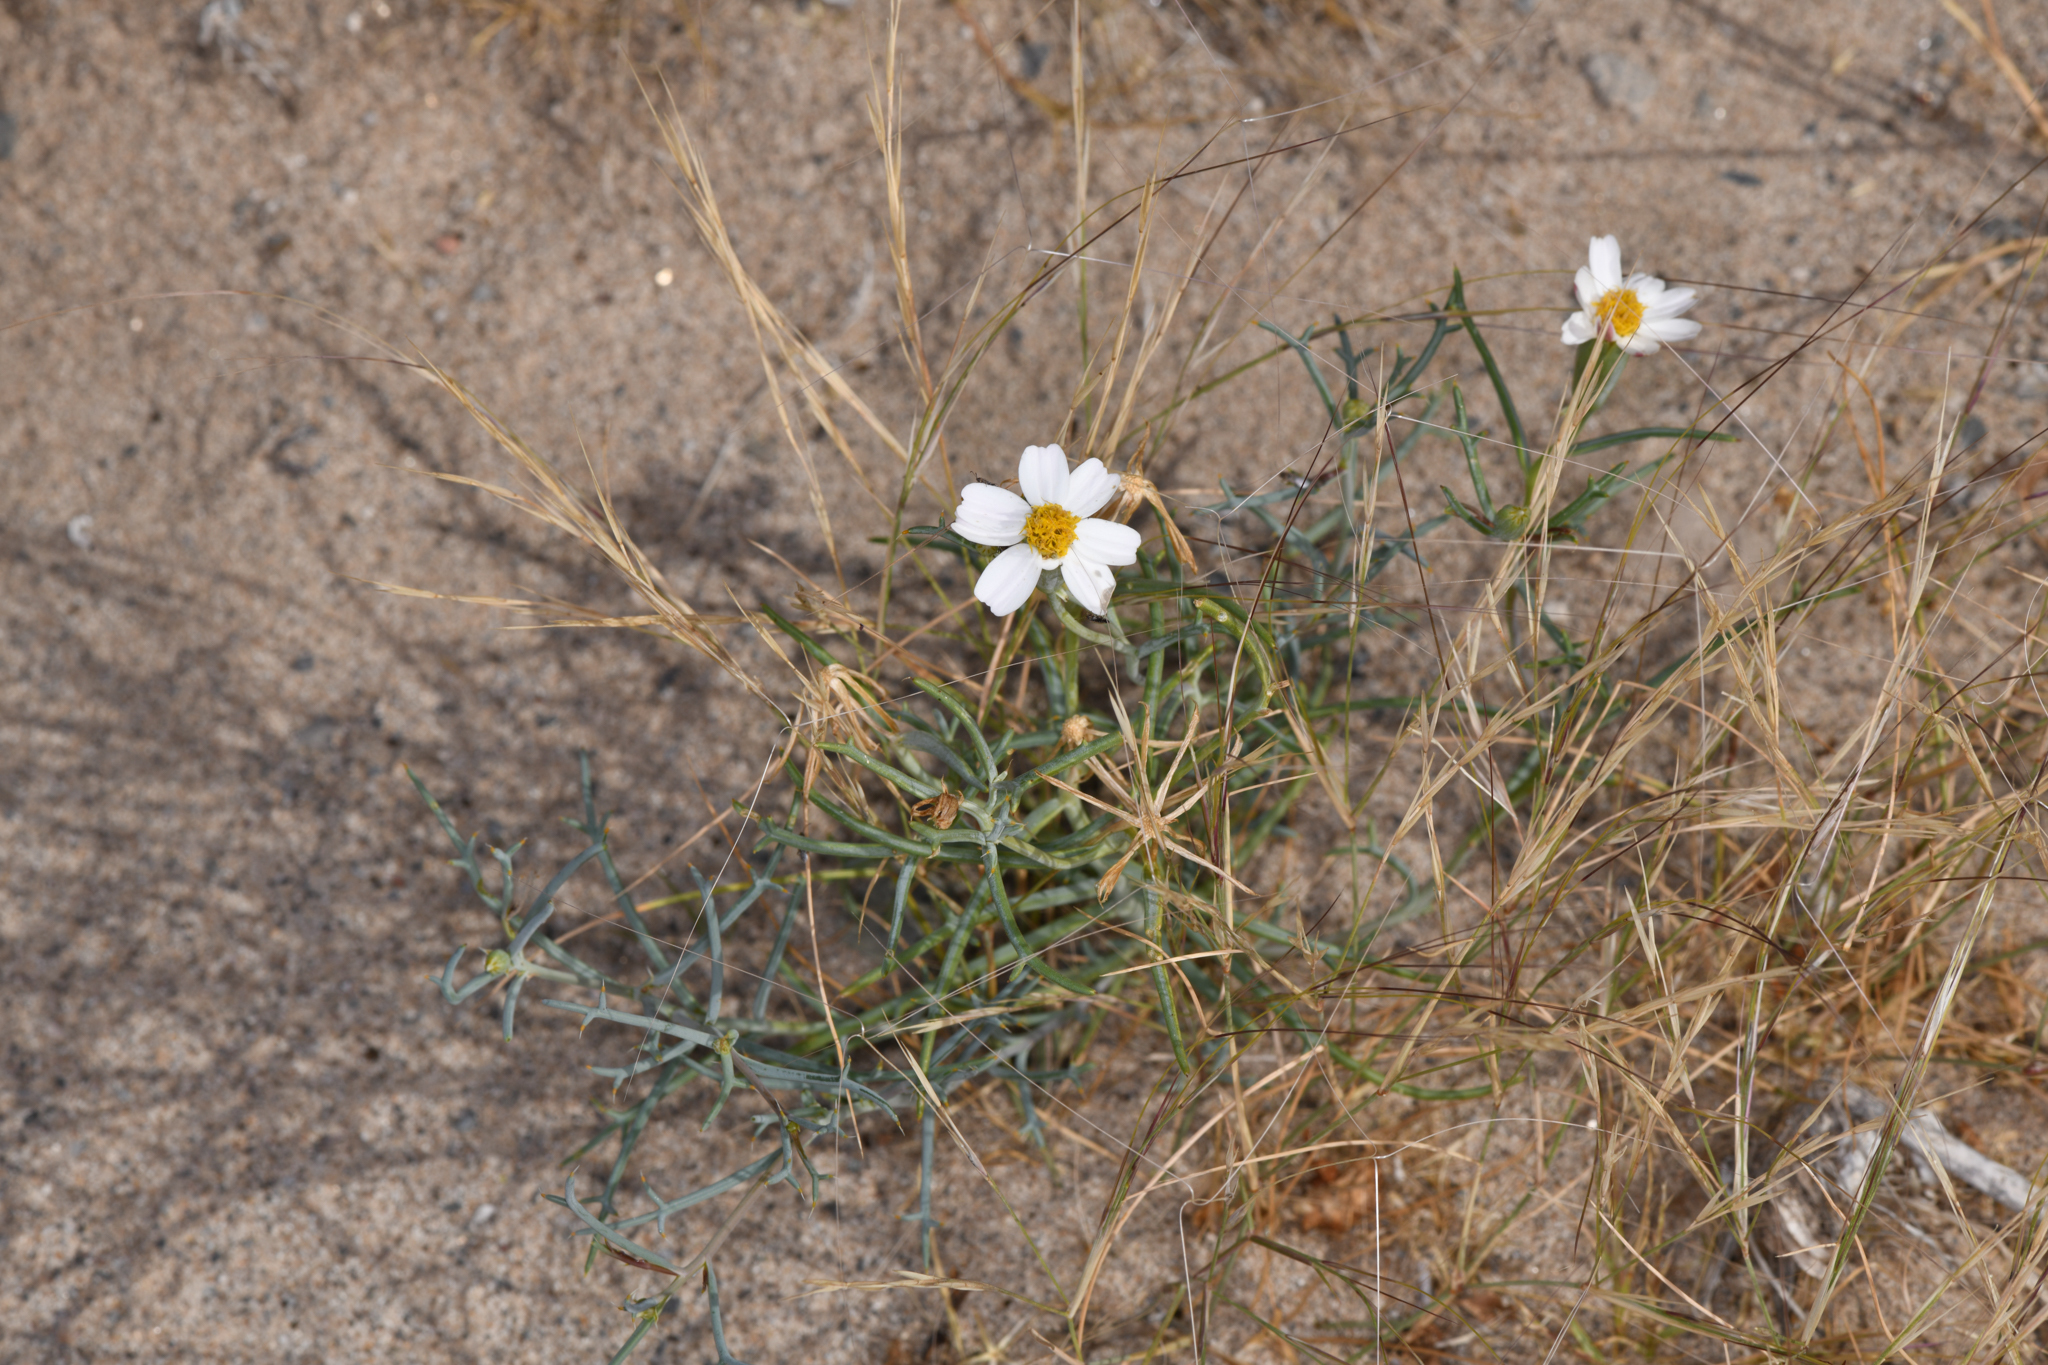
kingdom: Plantae
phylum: Tracheophyta
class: Magnoliopsida
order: Asterales
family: Asteraceae
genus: Nicolletia
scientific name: Nicolletia trifida
